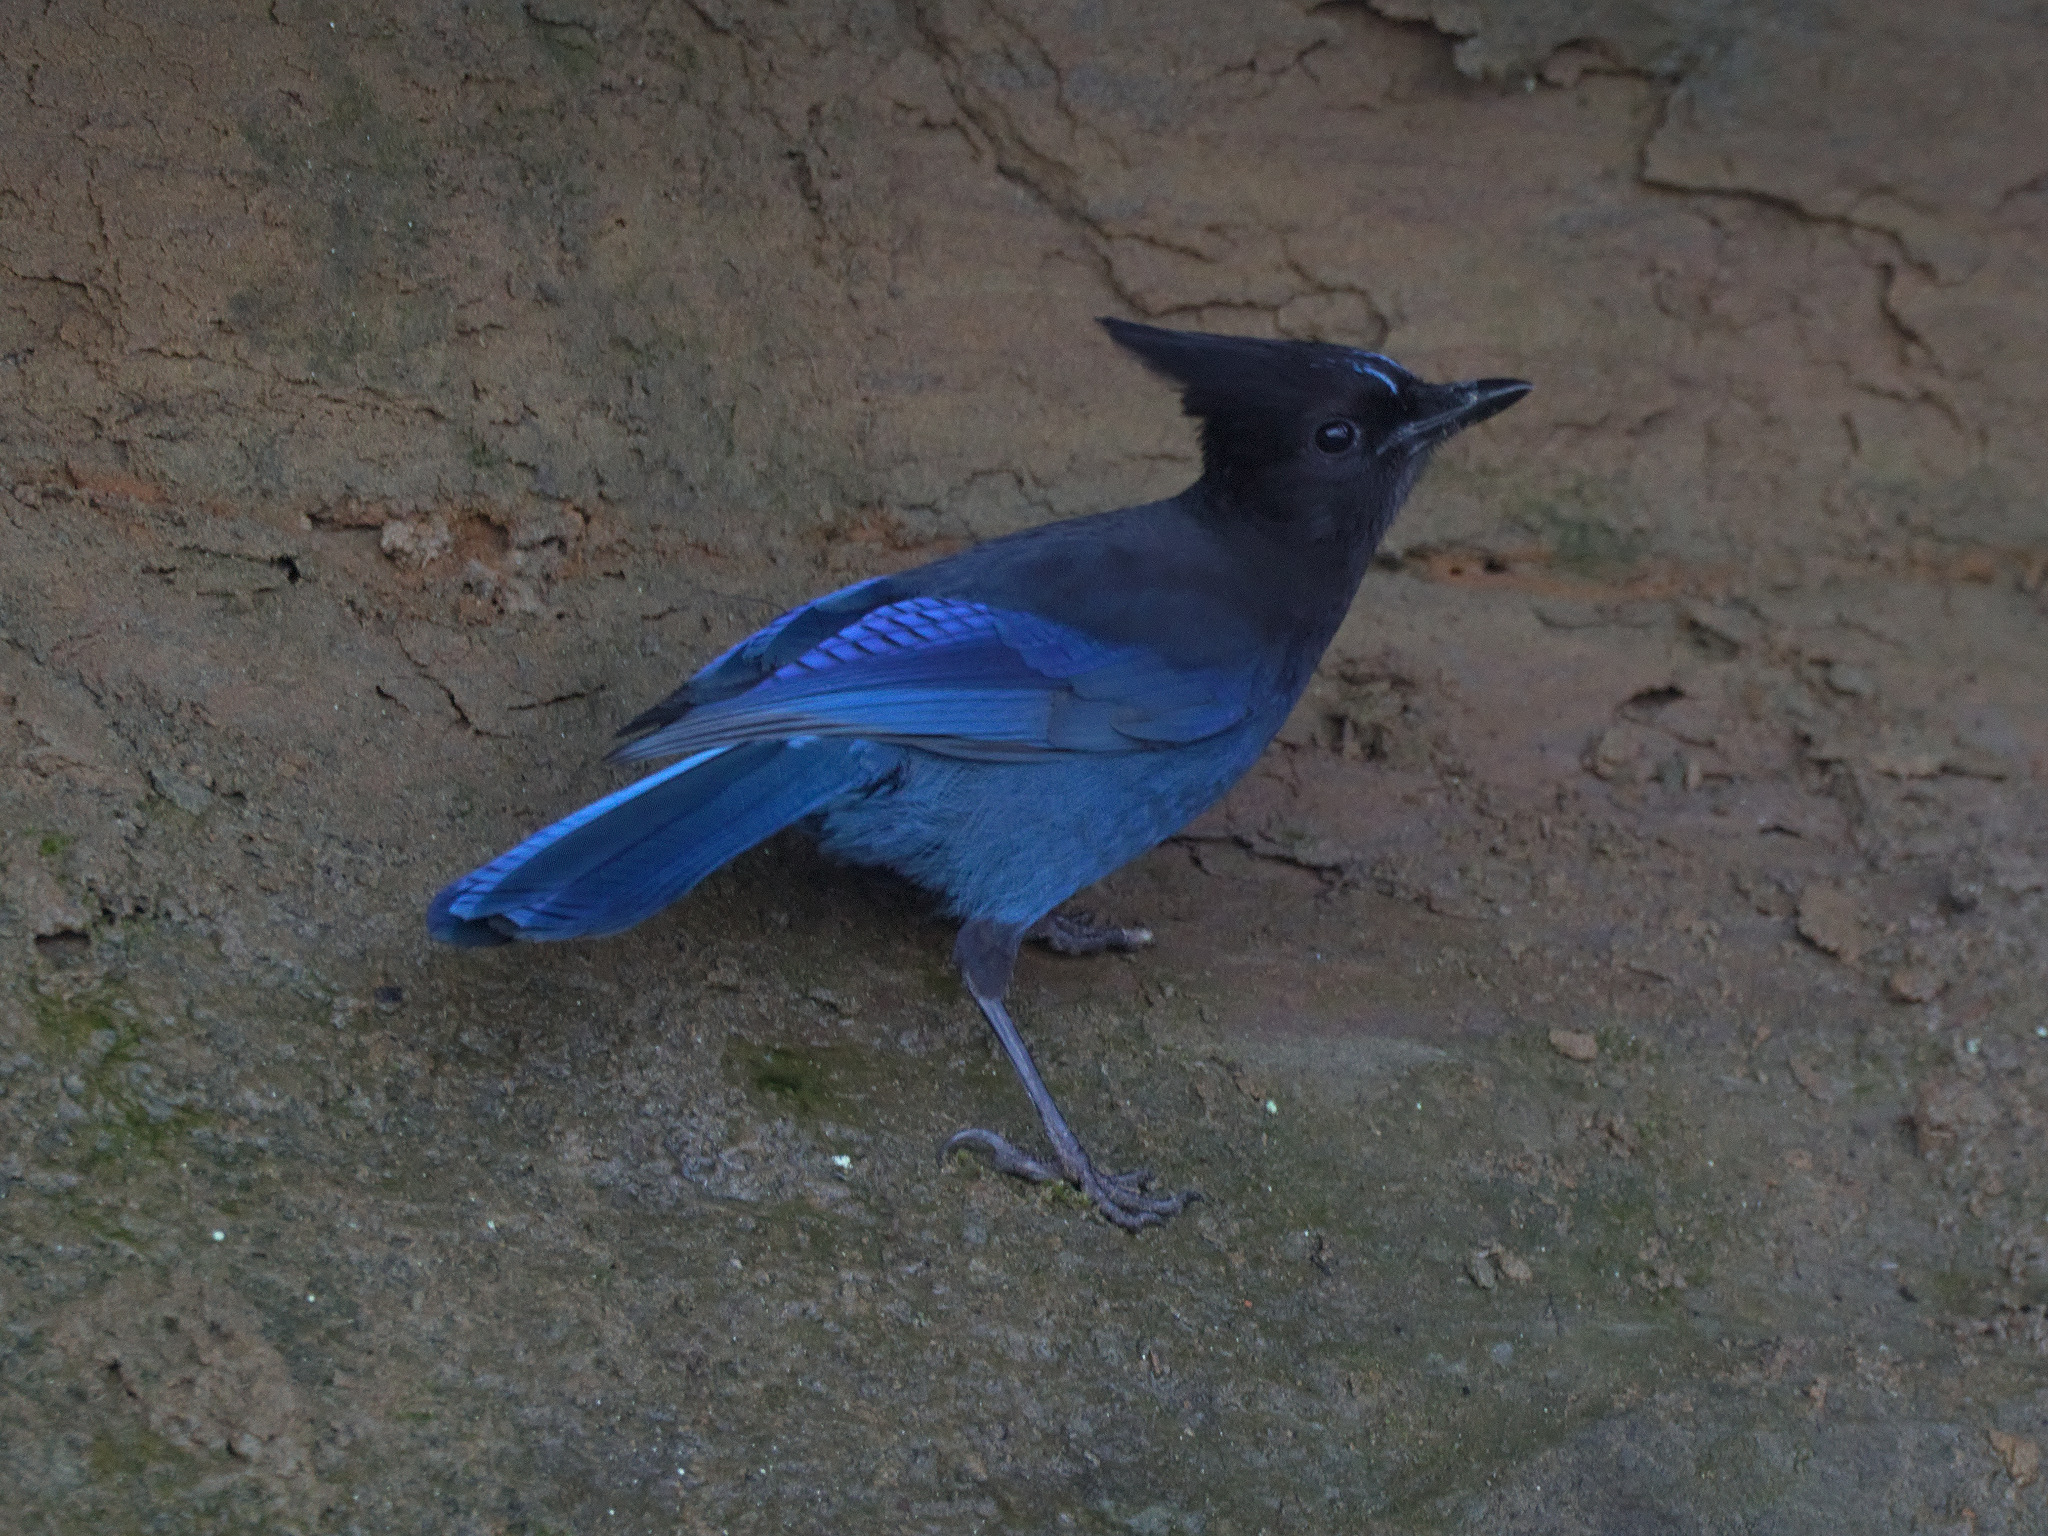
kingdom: Animalia
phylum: Chordata
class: Aves
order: Passeriformes
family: Corvidae
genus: Cyanocitta
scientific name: Cyanocitta stelleri
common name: Steller's jay
